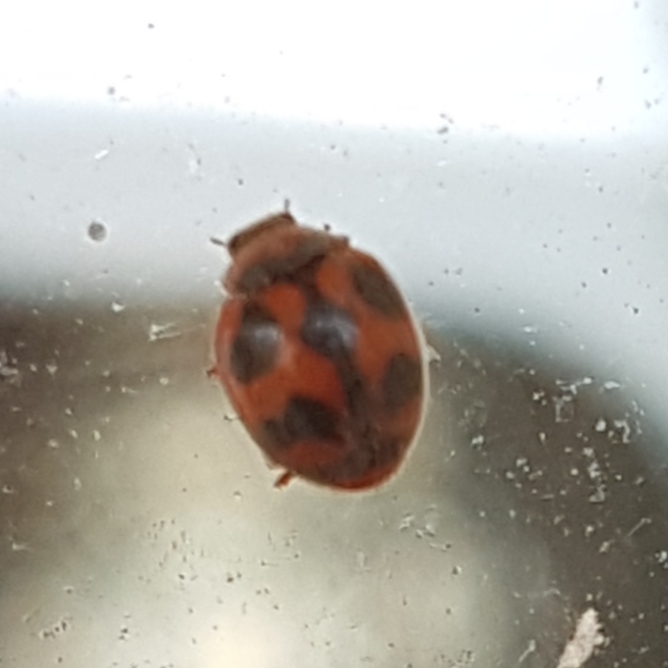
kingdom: Animalia
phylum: Arthropoda
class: Insecta
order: Coleoptera
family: Coccinellidae
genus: Novius
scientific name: Novius cardinalis
